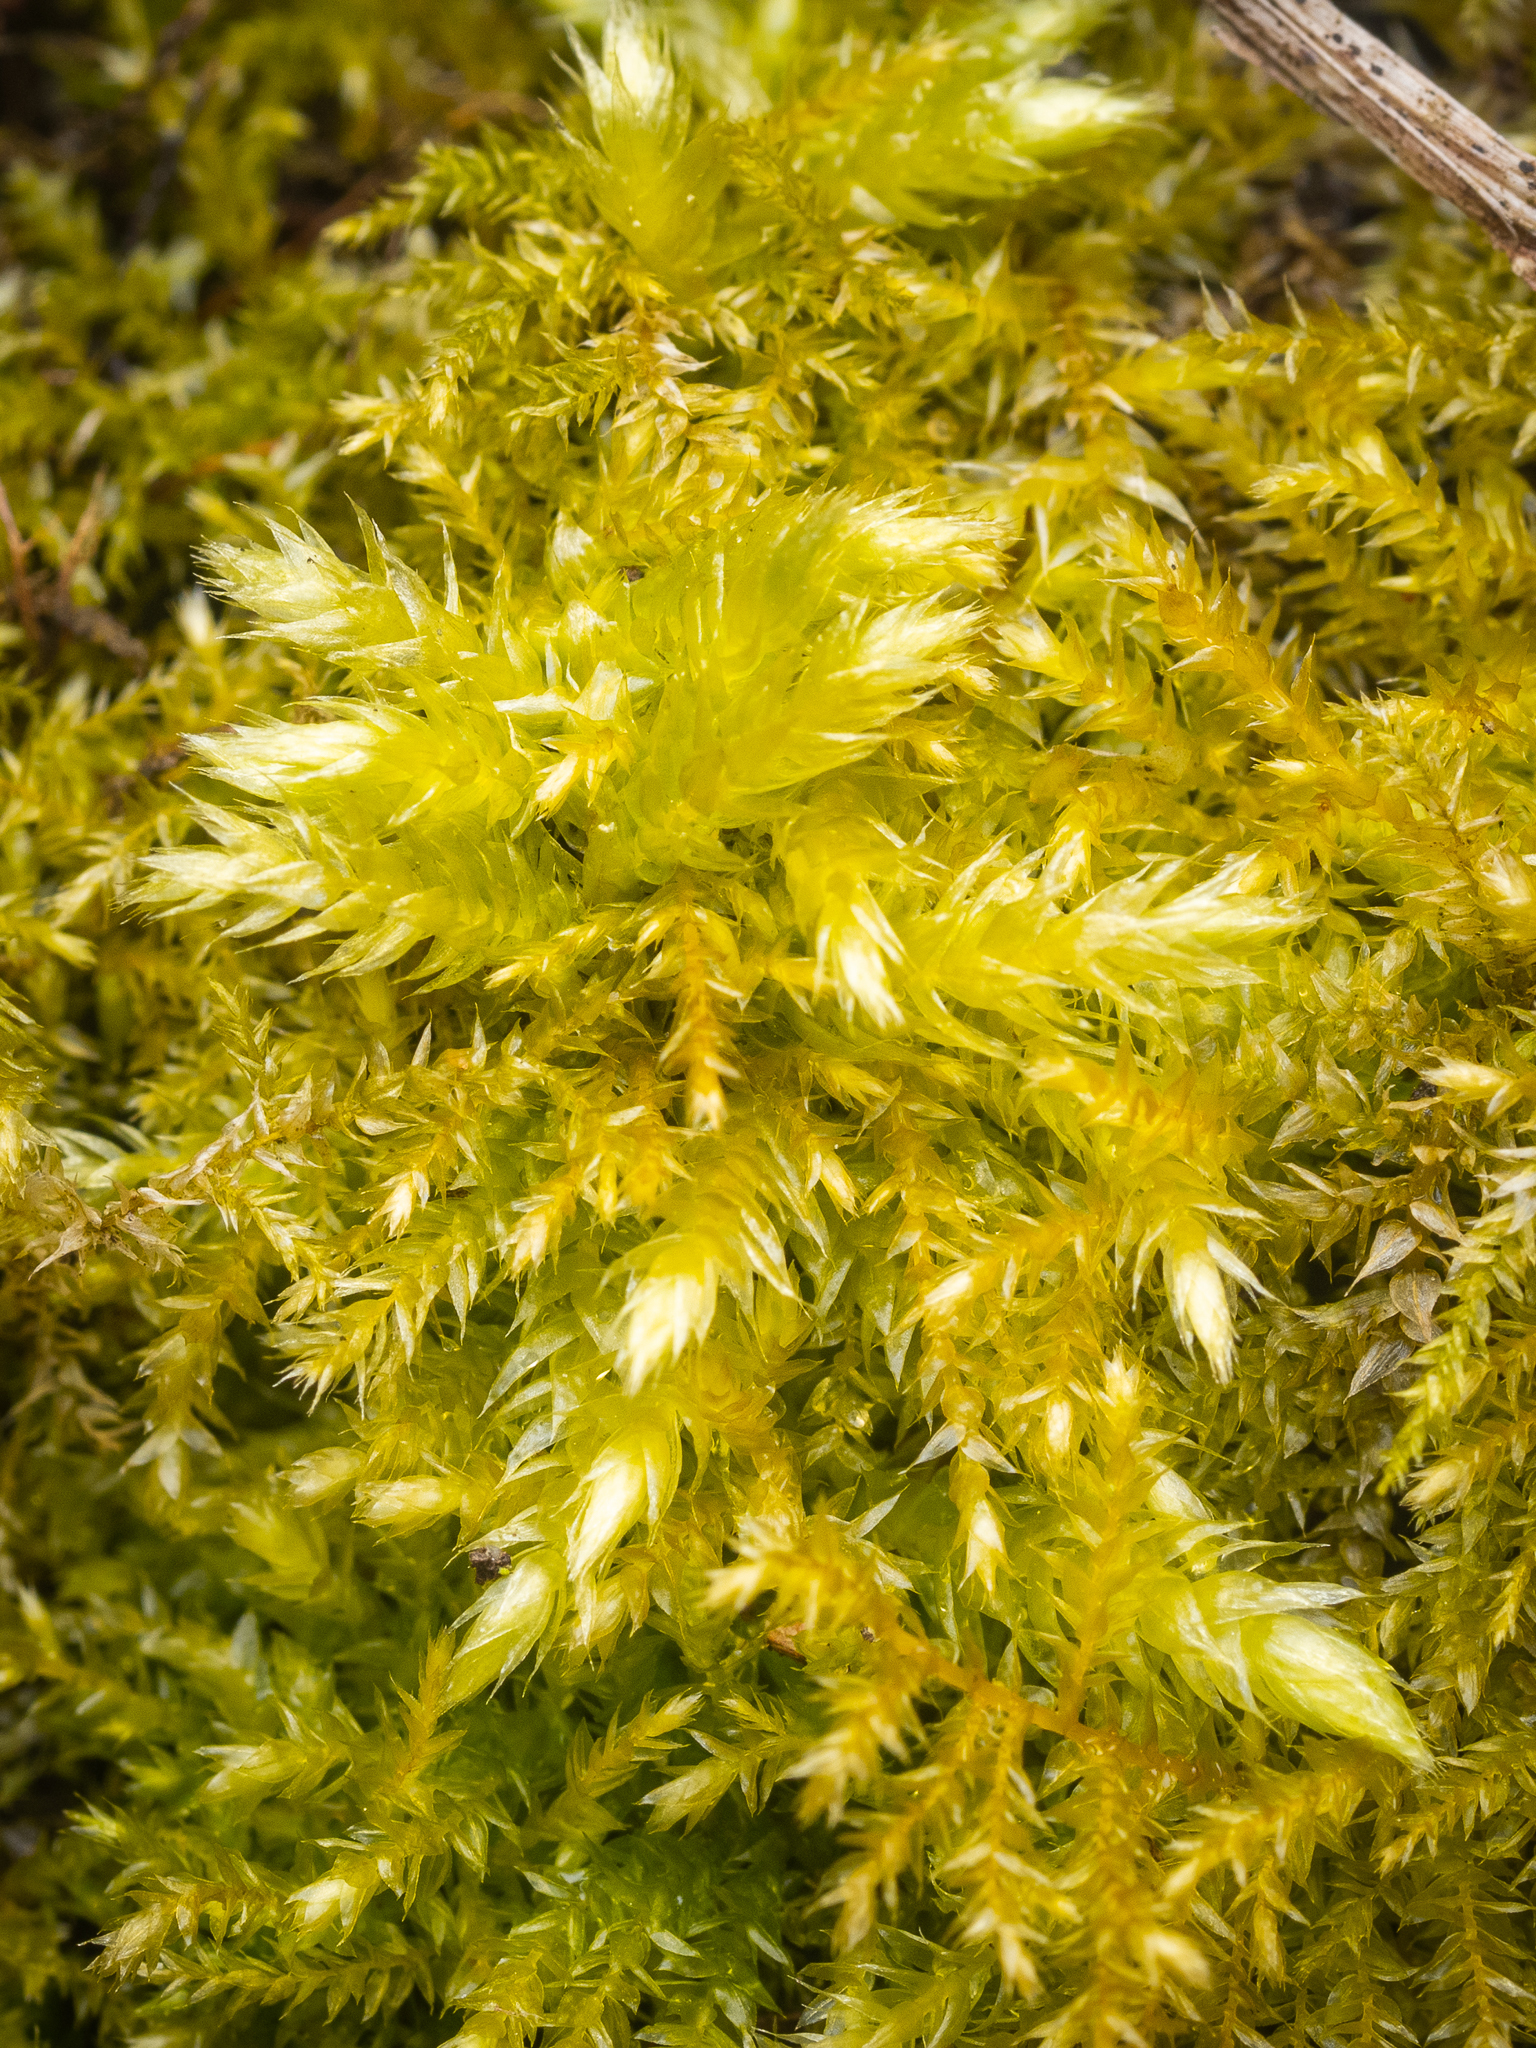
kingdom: Plantae
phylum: Bryophyta
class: Bryopsida
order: Hypnales
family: Brachytheciaceae
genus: Brachythecium
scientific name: Brachythecium rutabulum
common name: Rough-stalked feather-moss
